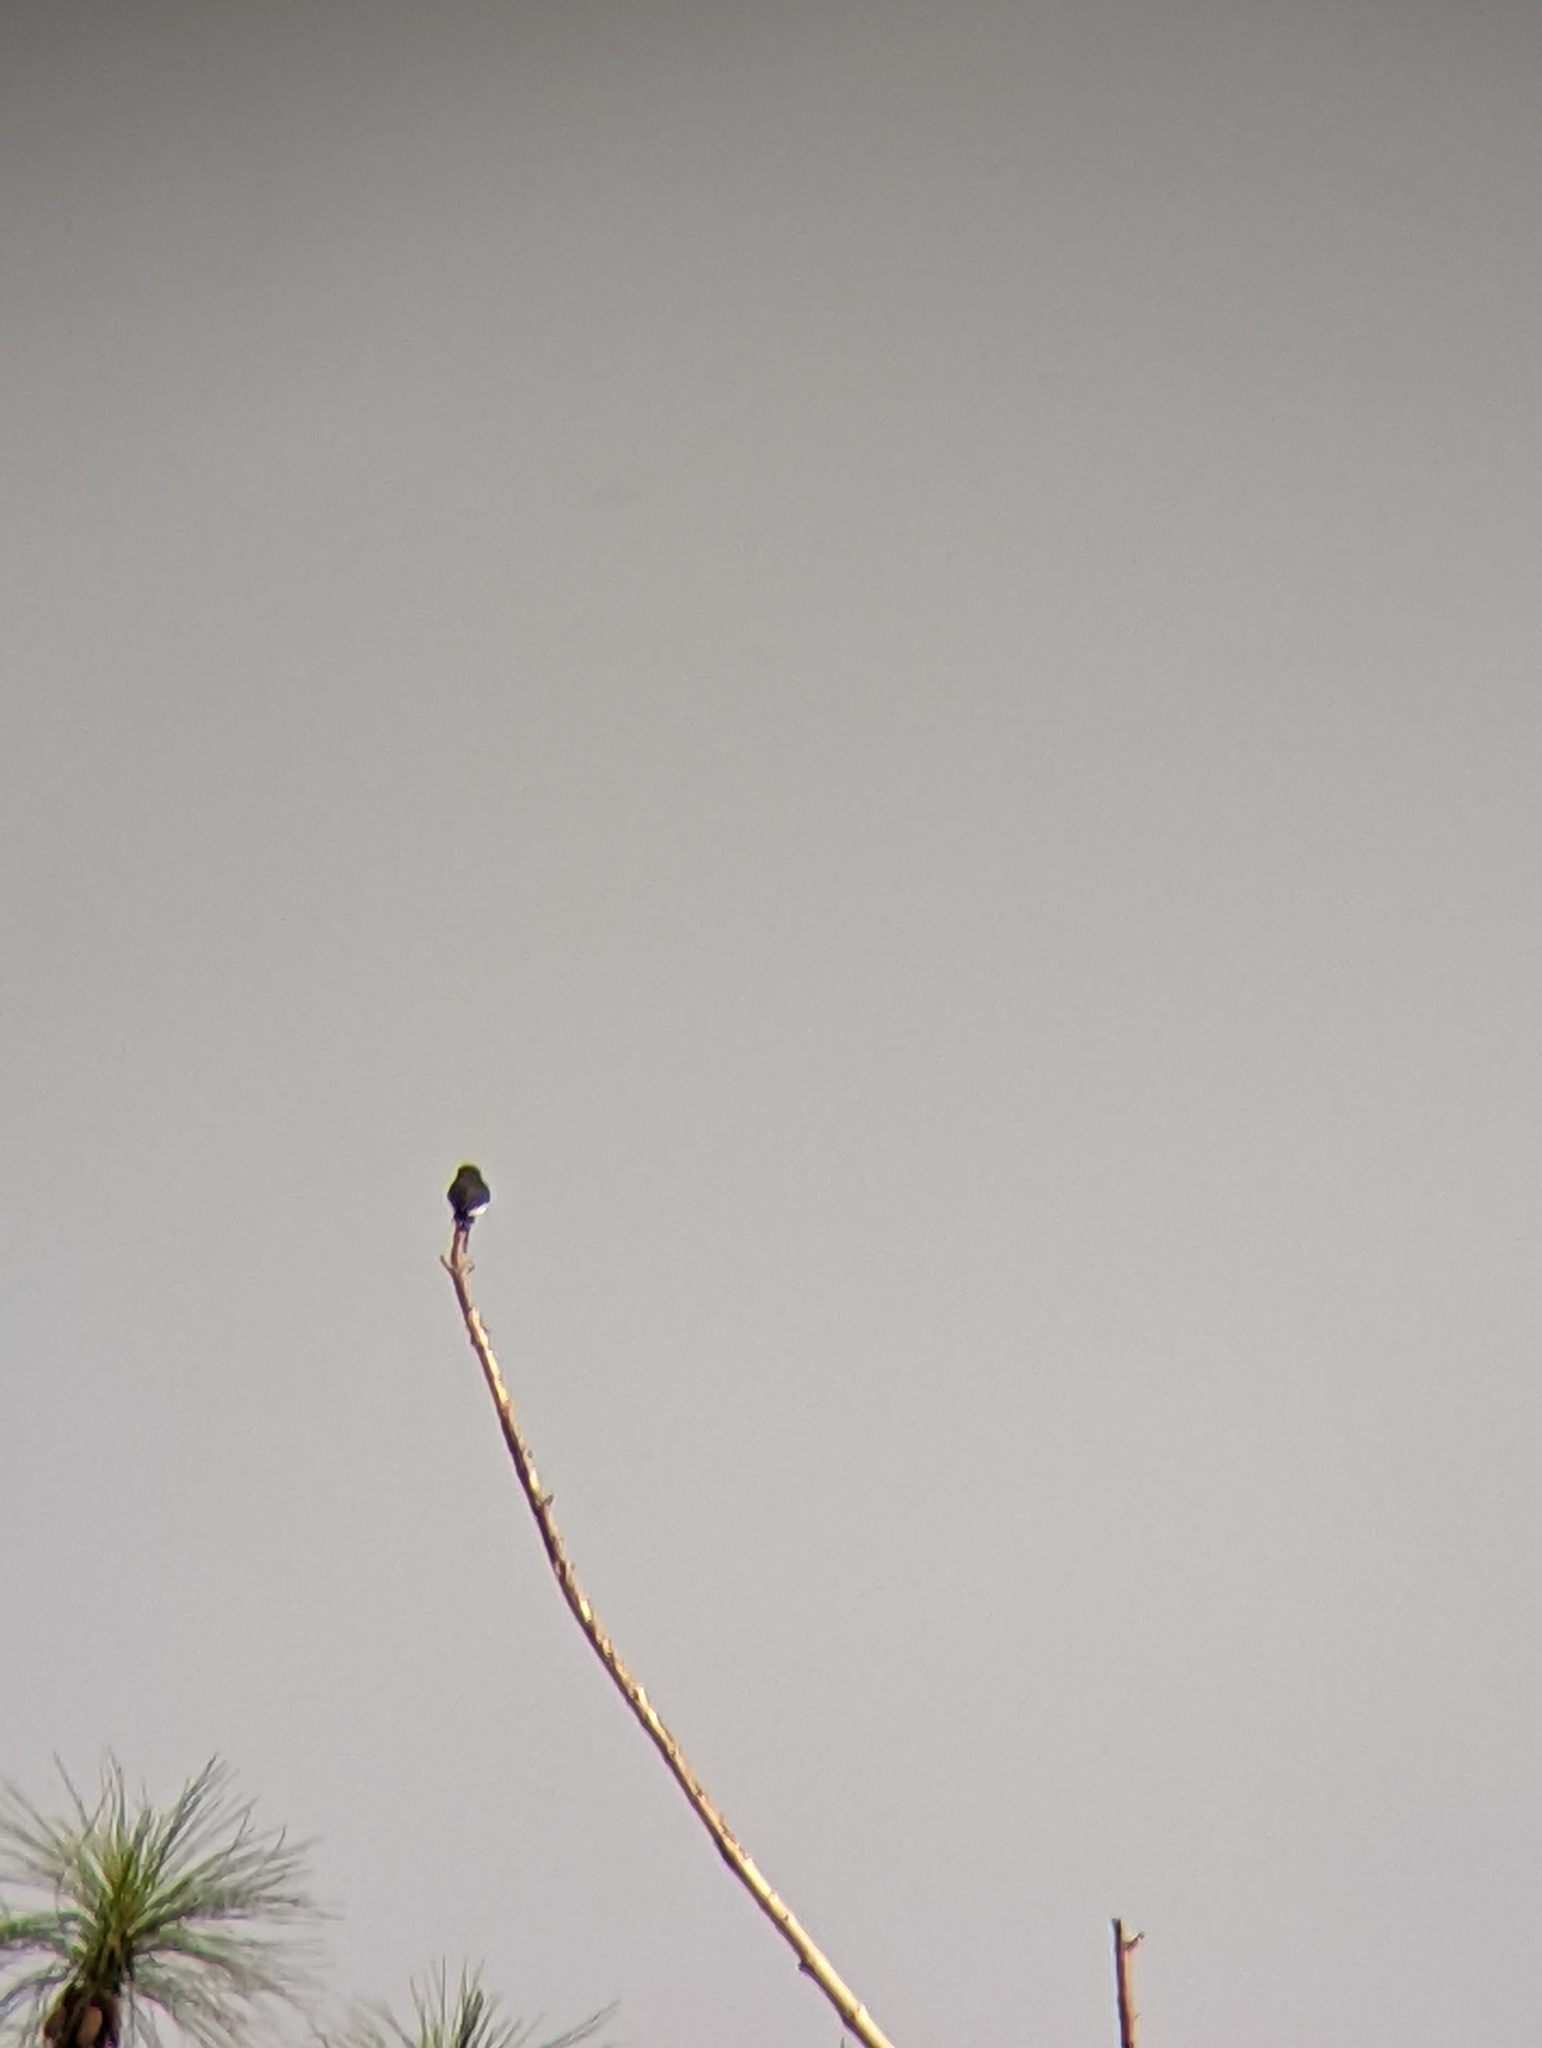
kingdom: Animalia
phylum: Chordata
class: Aves
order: Passeriformes
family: Artamidae
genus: Artamus
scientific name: Artamus mentalis
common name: Fiji woodswallow
